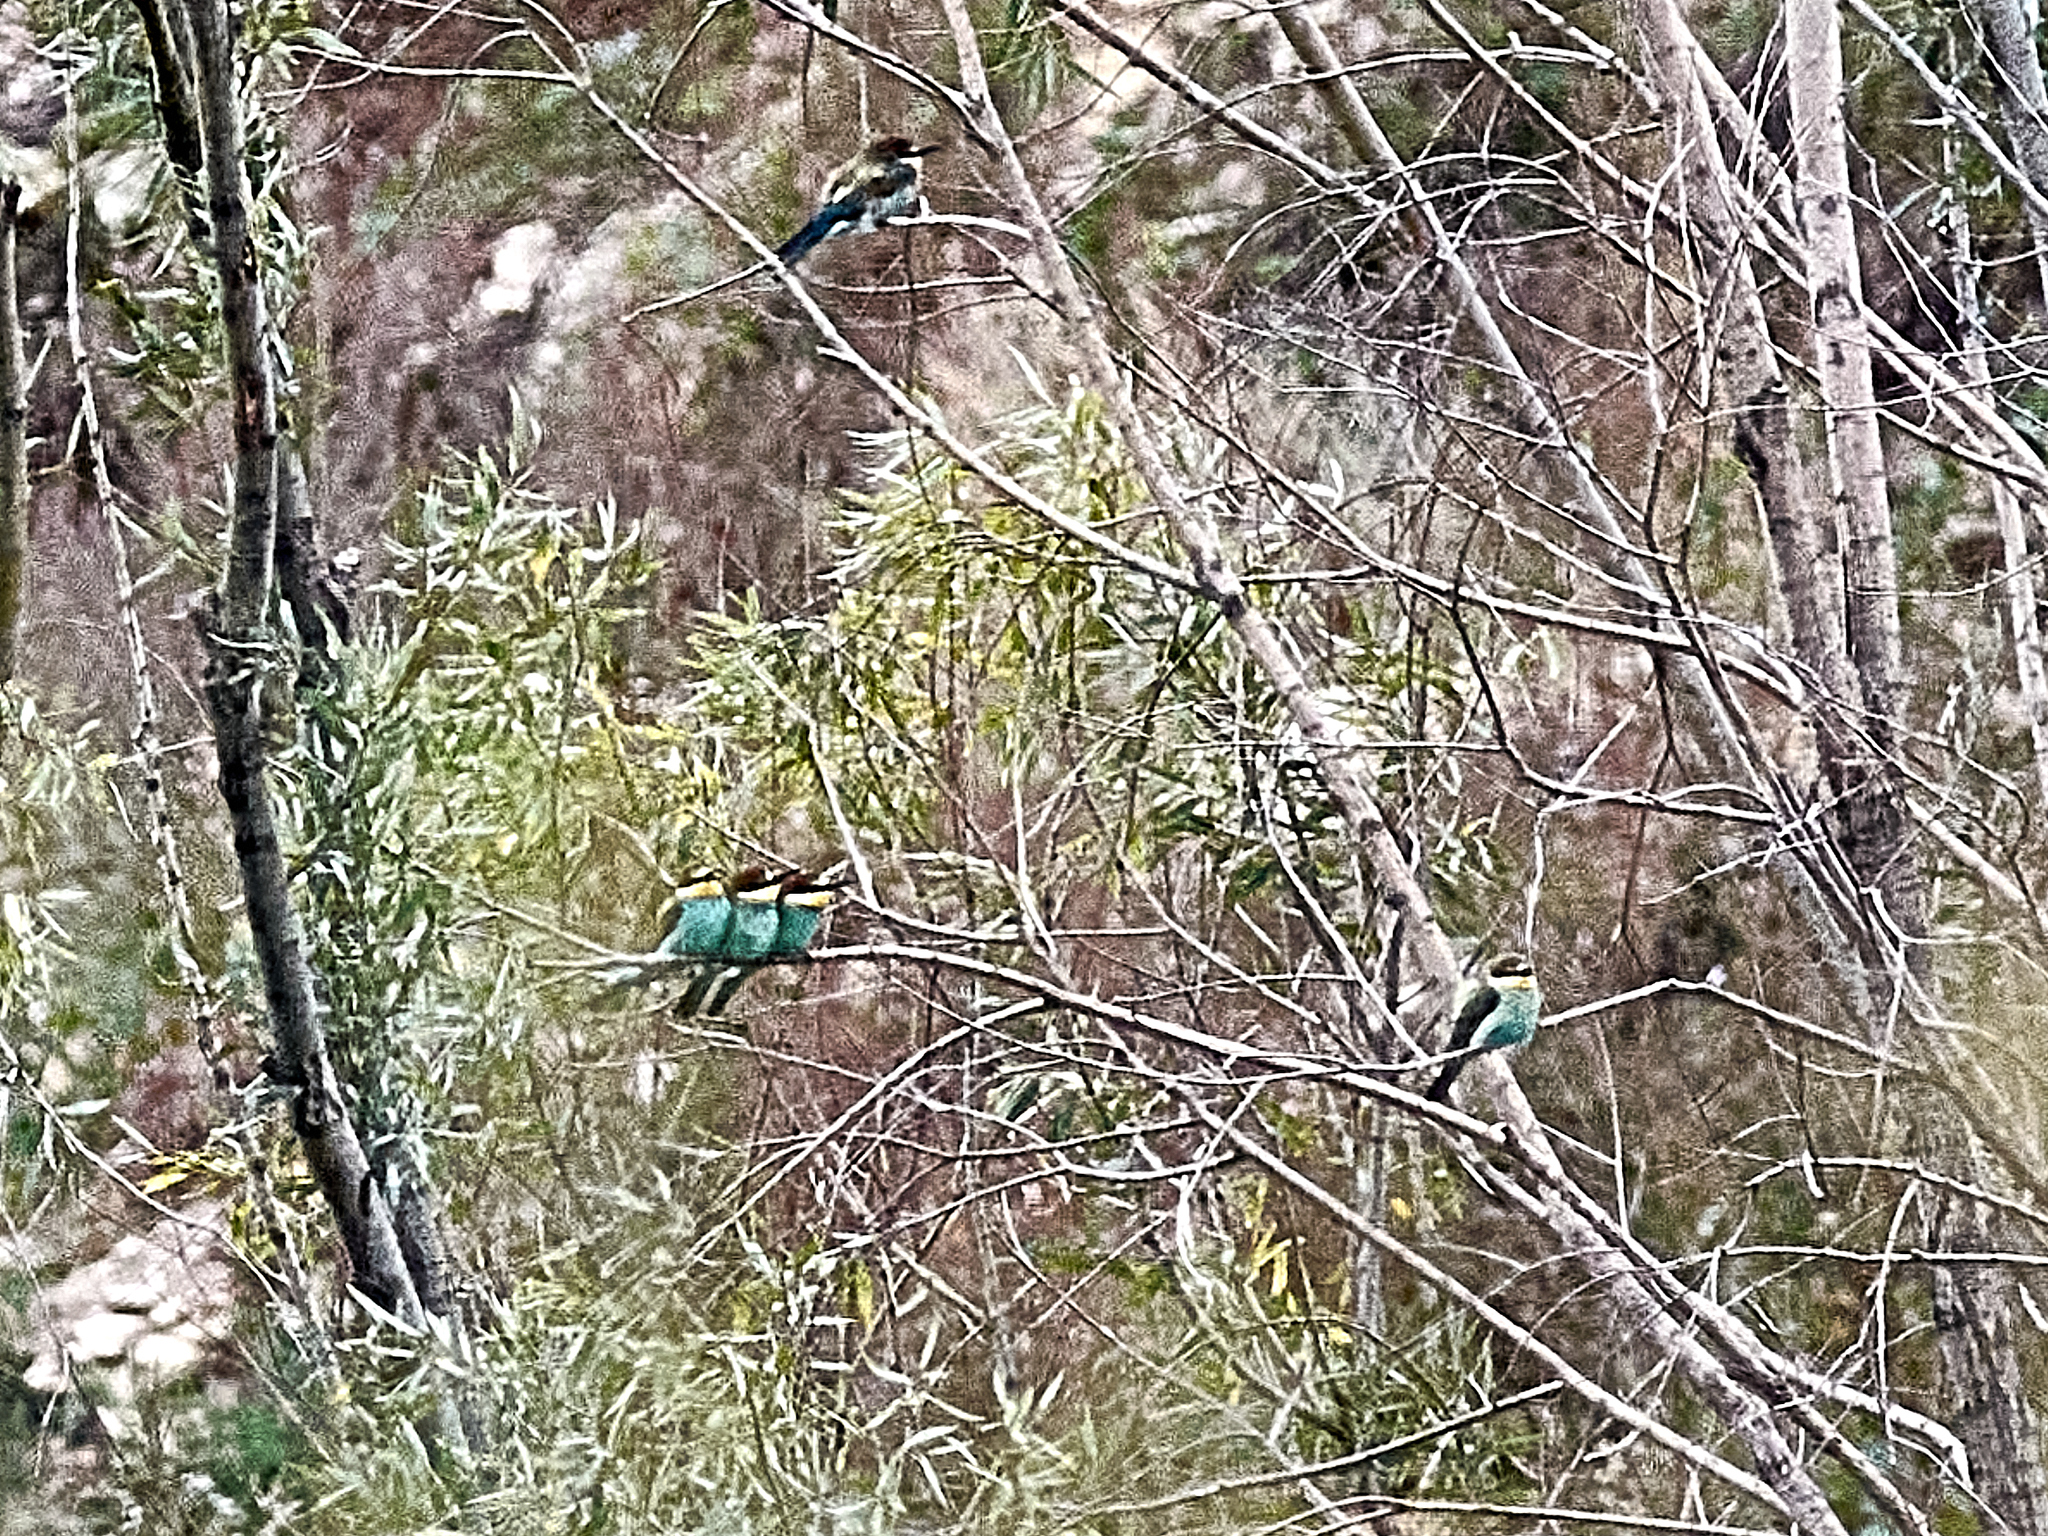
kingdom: Animalia
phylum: Chordata
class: Aves
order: Coraciiformes
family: Meropidae
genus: Merops
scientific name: Merops apiaster
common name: European bee-eater
